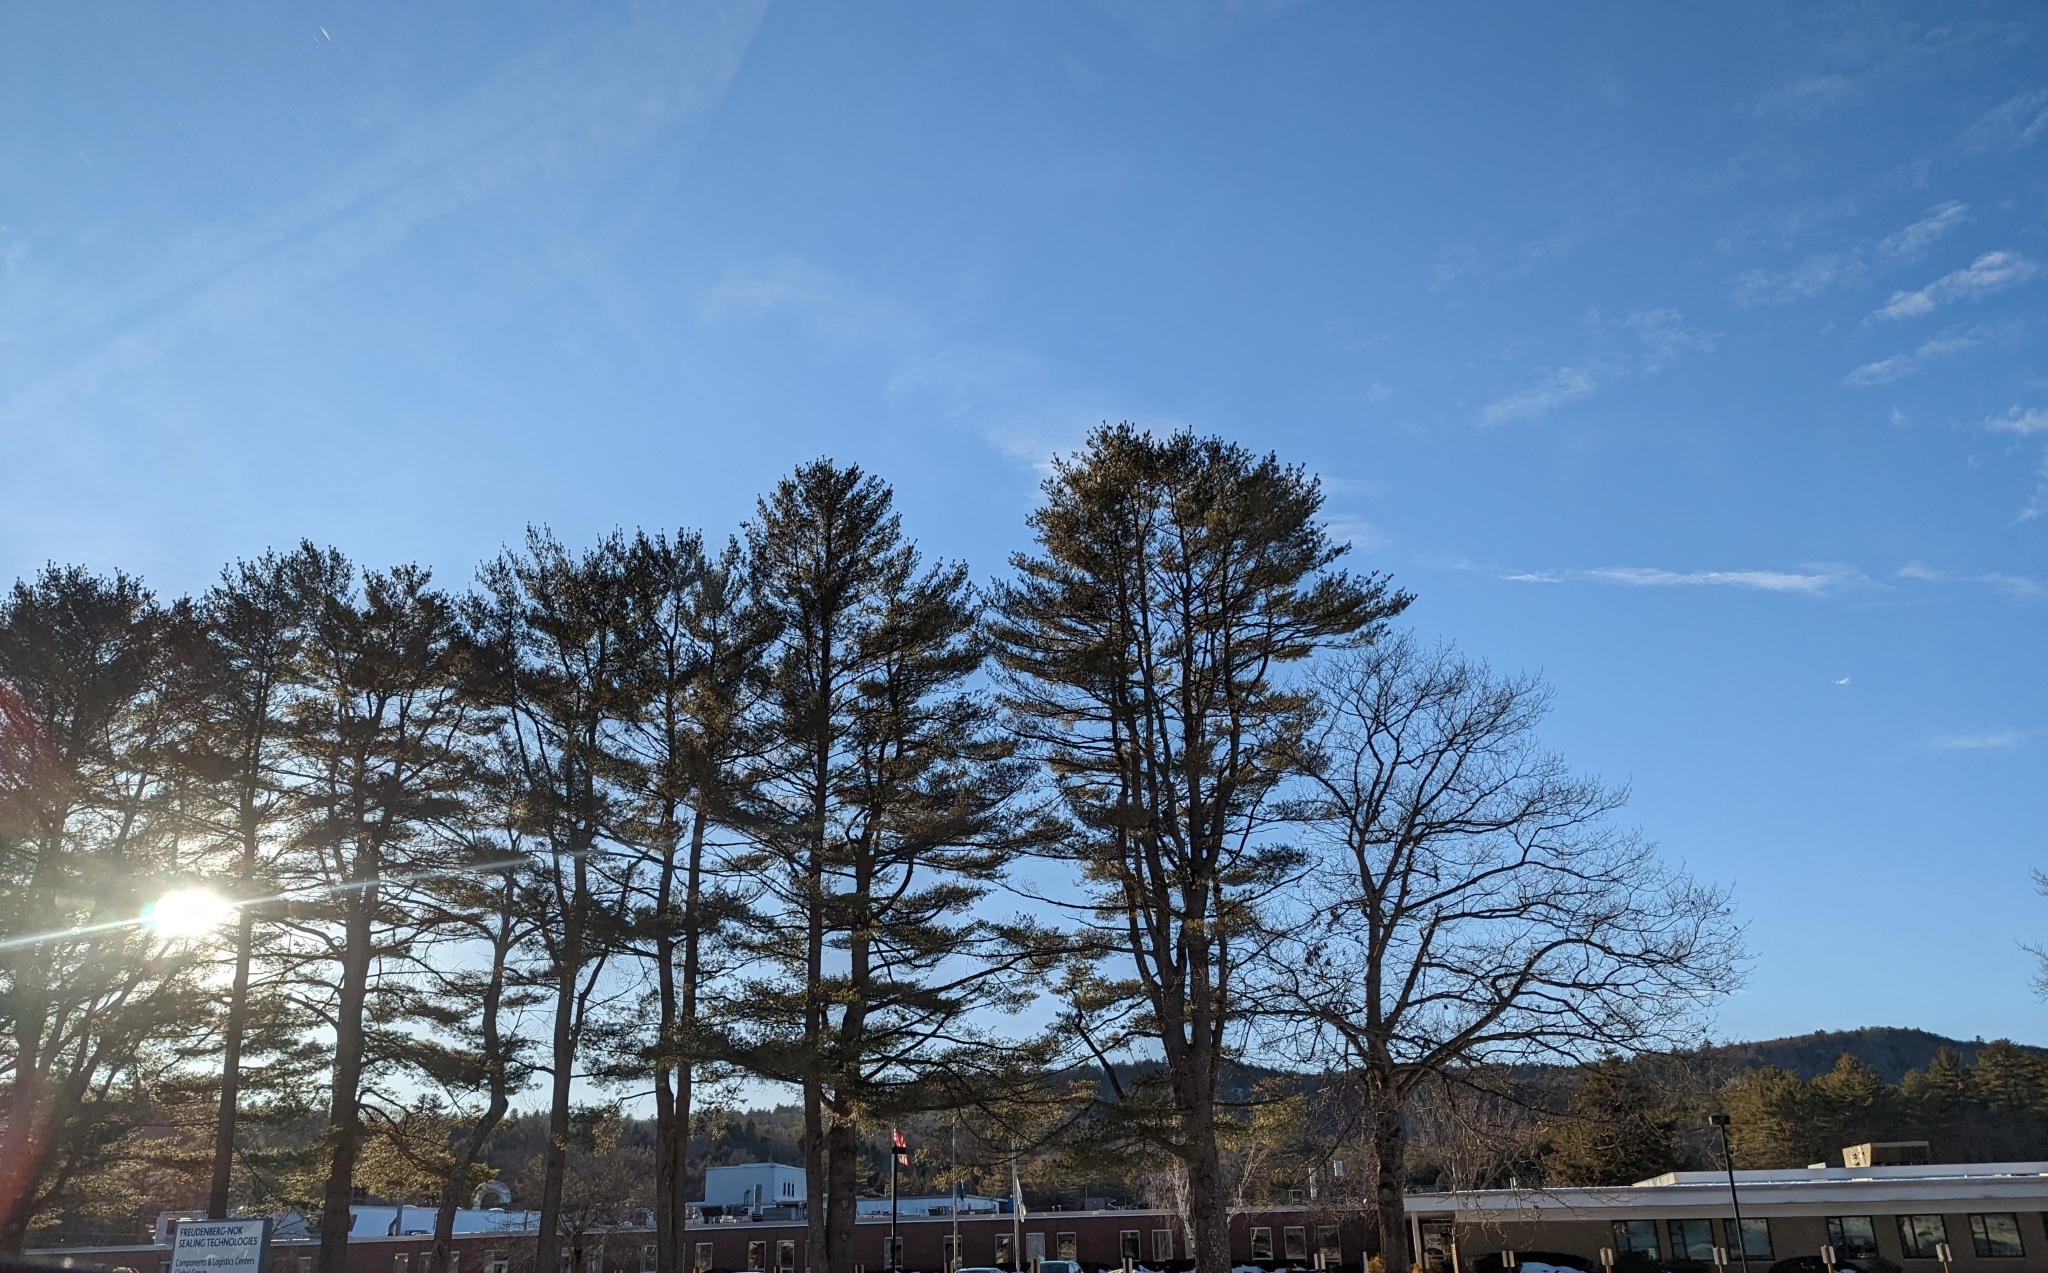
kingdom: Plantae
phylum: Tracheophyta
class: Pinopsida
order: Pinales
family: Pinaceae
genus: Pinus
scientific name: Pinus strobus
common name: Weymouth pine
